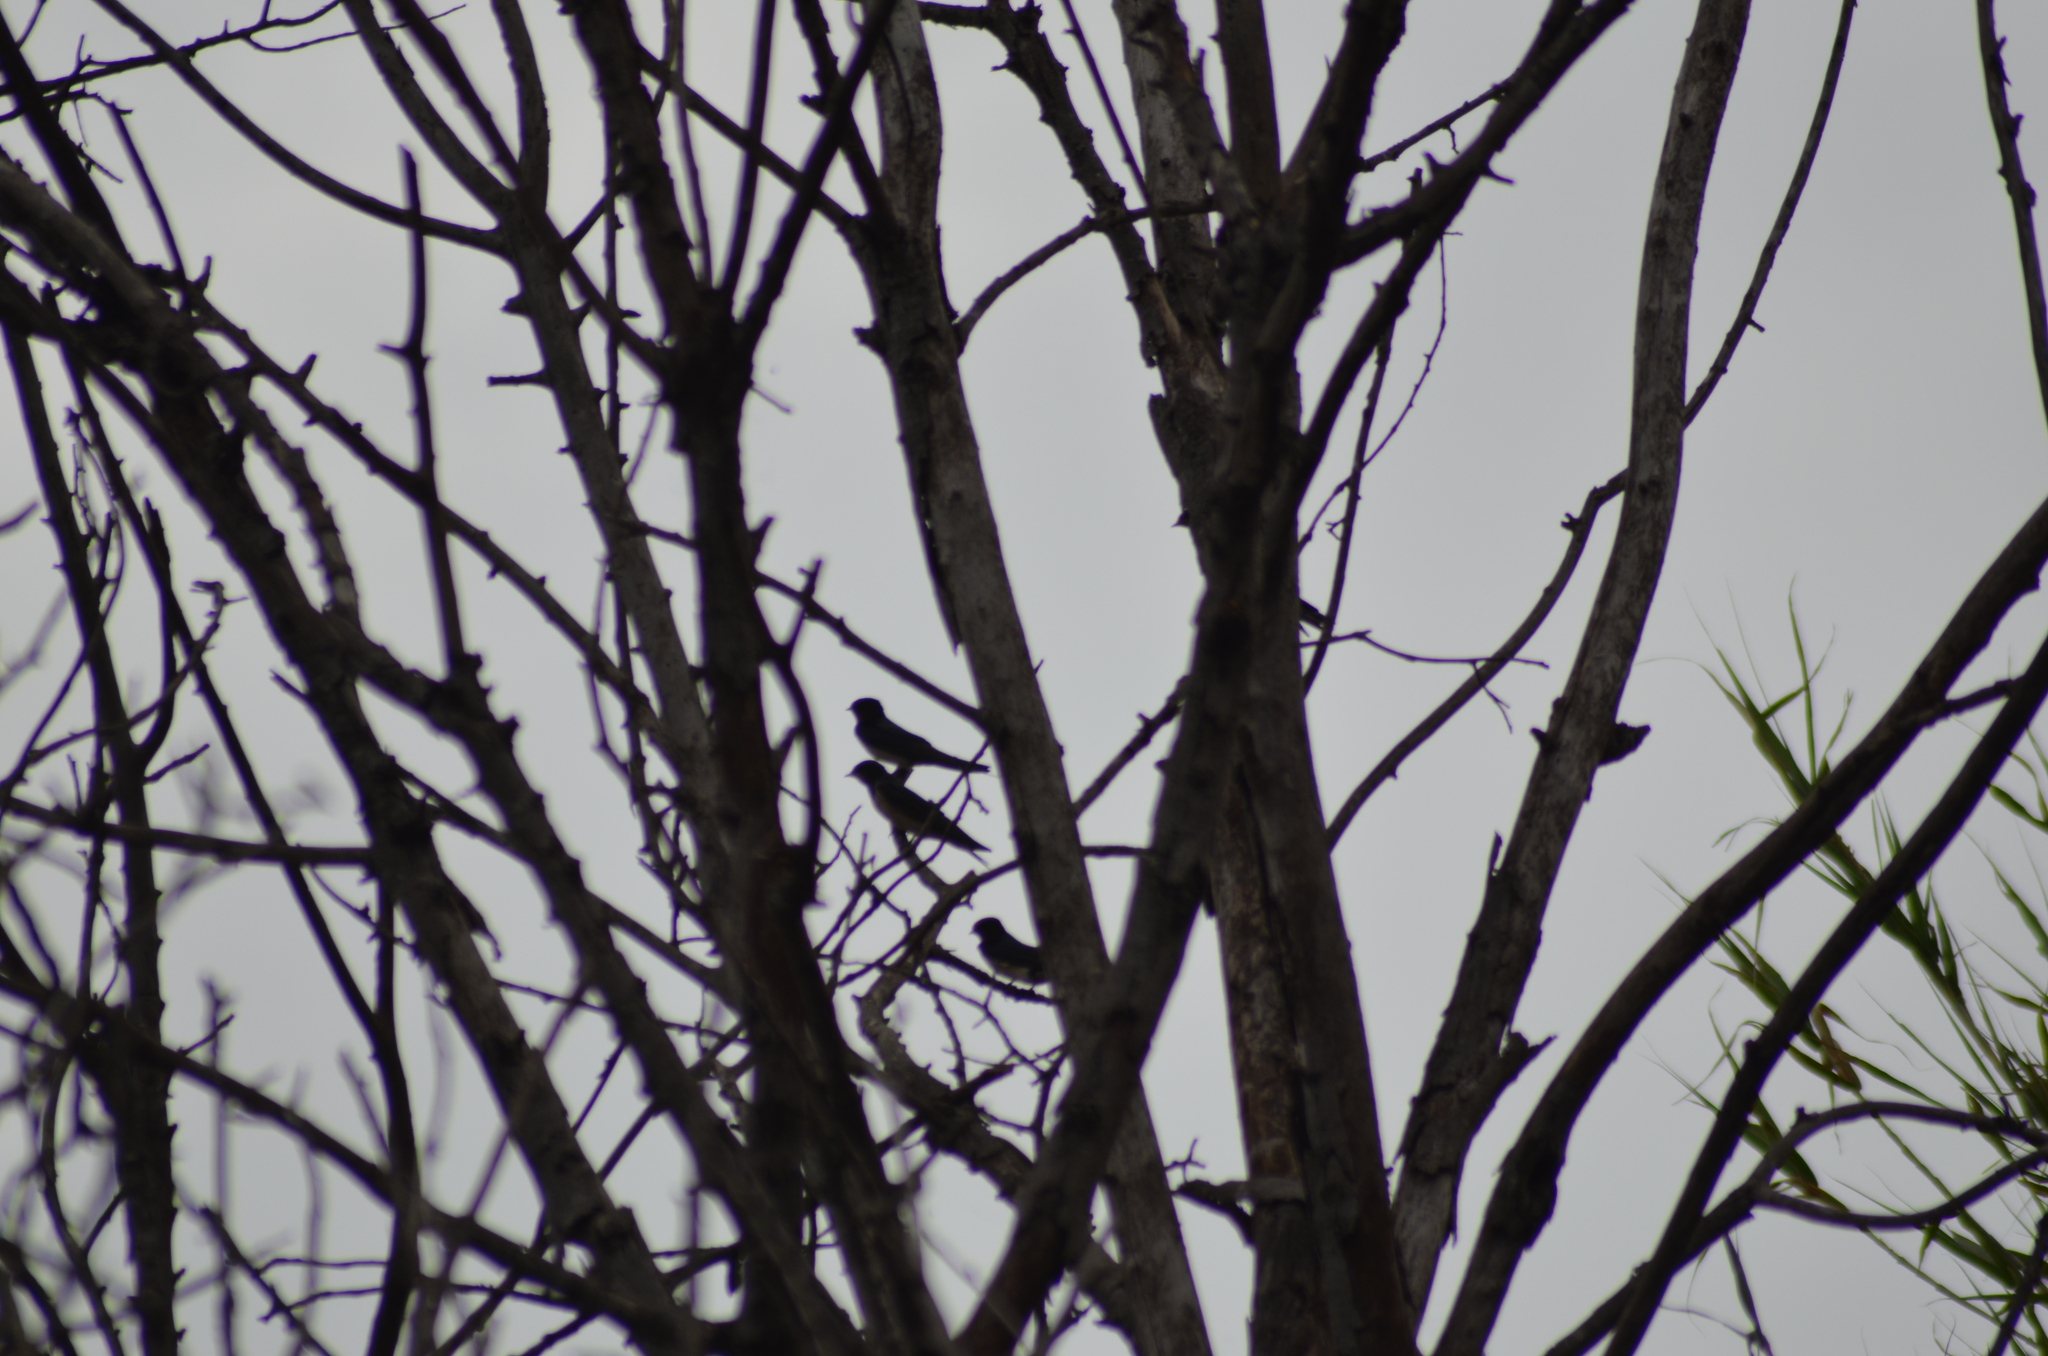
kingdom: Animalia
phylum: Chordata
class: Aves
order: Passeriformes
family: Hirundinidae
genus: Hirundo
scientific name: Hirundo rustica
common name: Barn swallow
